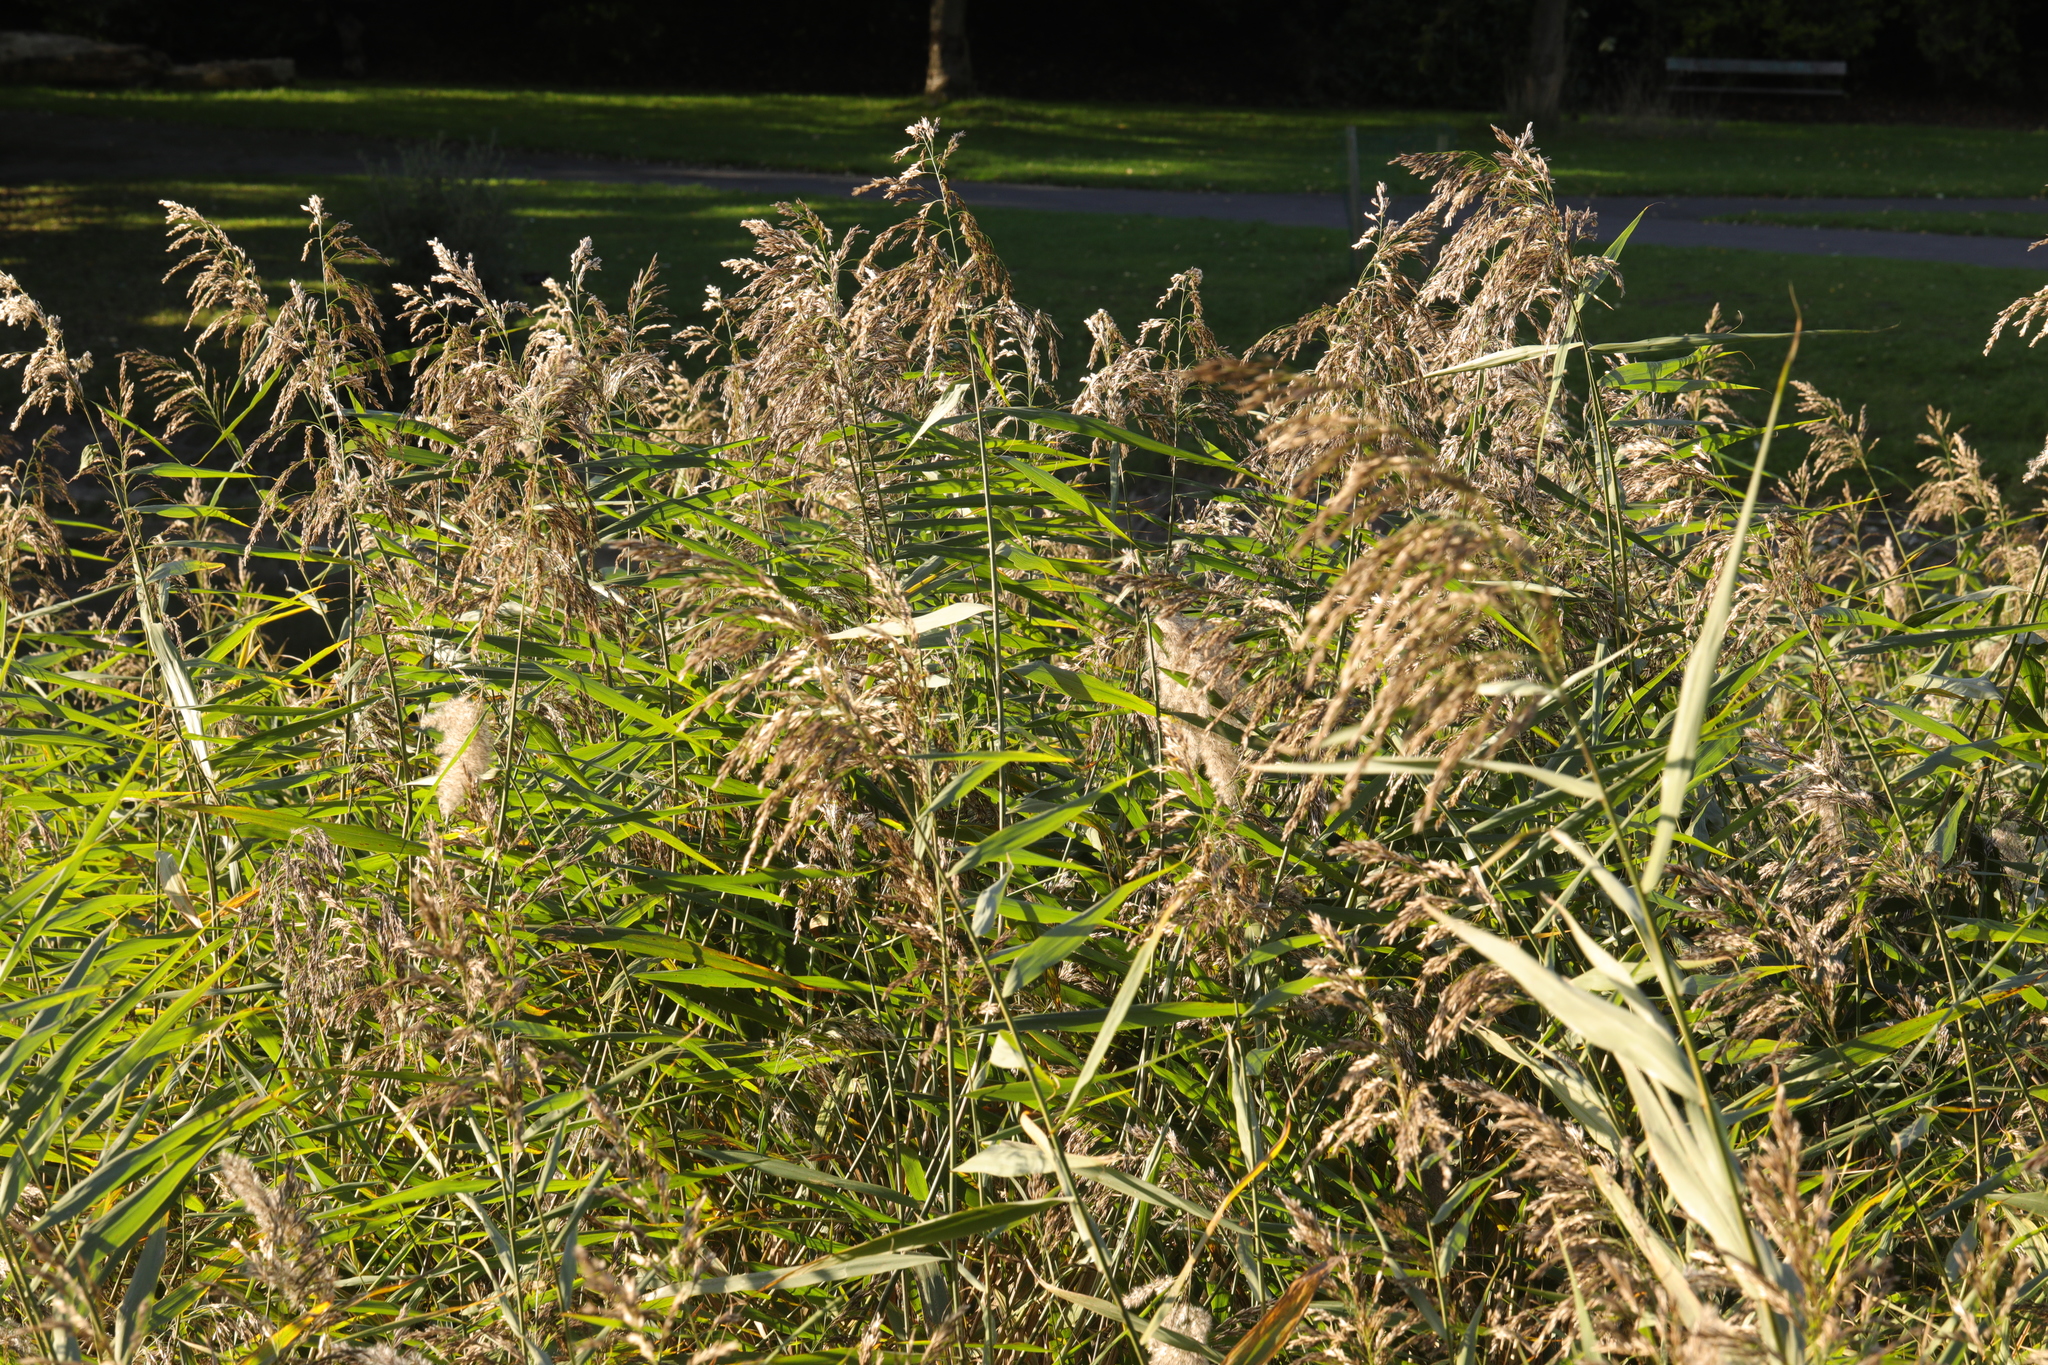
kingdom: Plantae
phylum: Tracheophyta
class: Liliopsida
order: Poales
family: Poaceae
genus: Phragmites
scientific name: Phragmites australis
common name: Common reed
